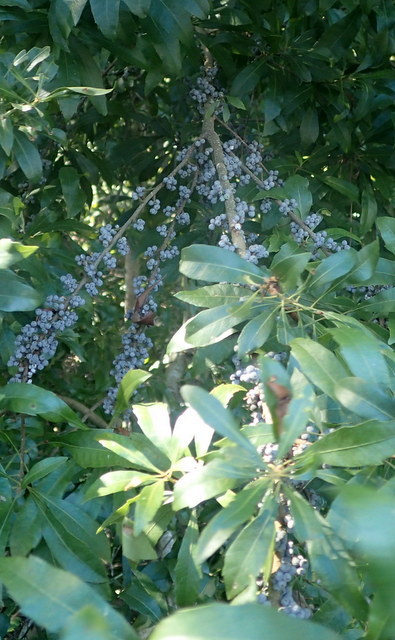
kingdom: Plantae
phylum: Tracheophyta
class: Magnoliopsida
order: Fagales
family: Myricaceae
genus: Morella
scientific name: Morella cerifera
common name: Wax myrtle
